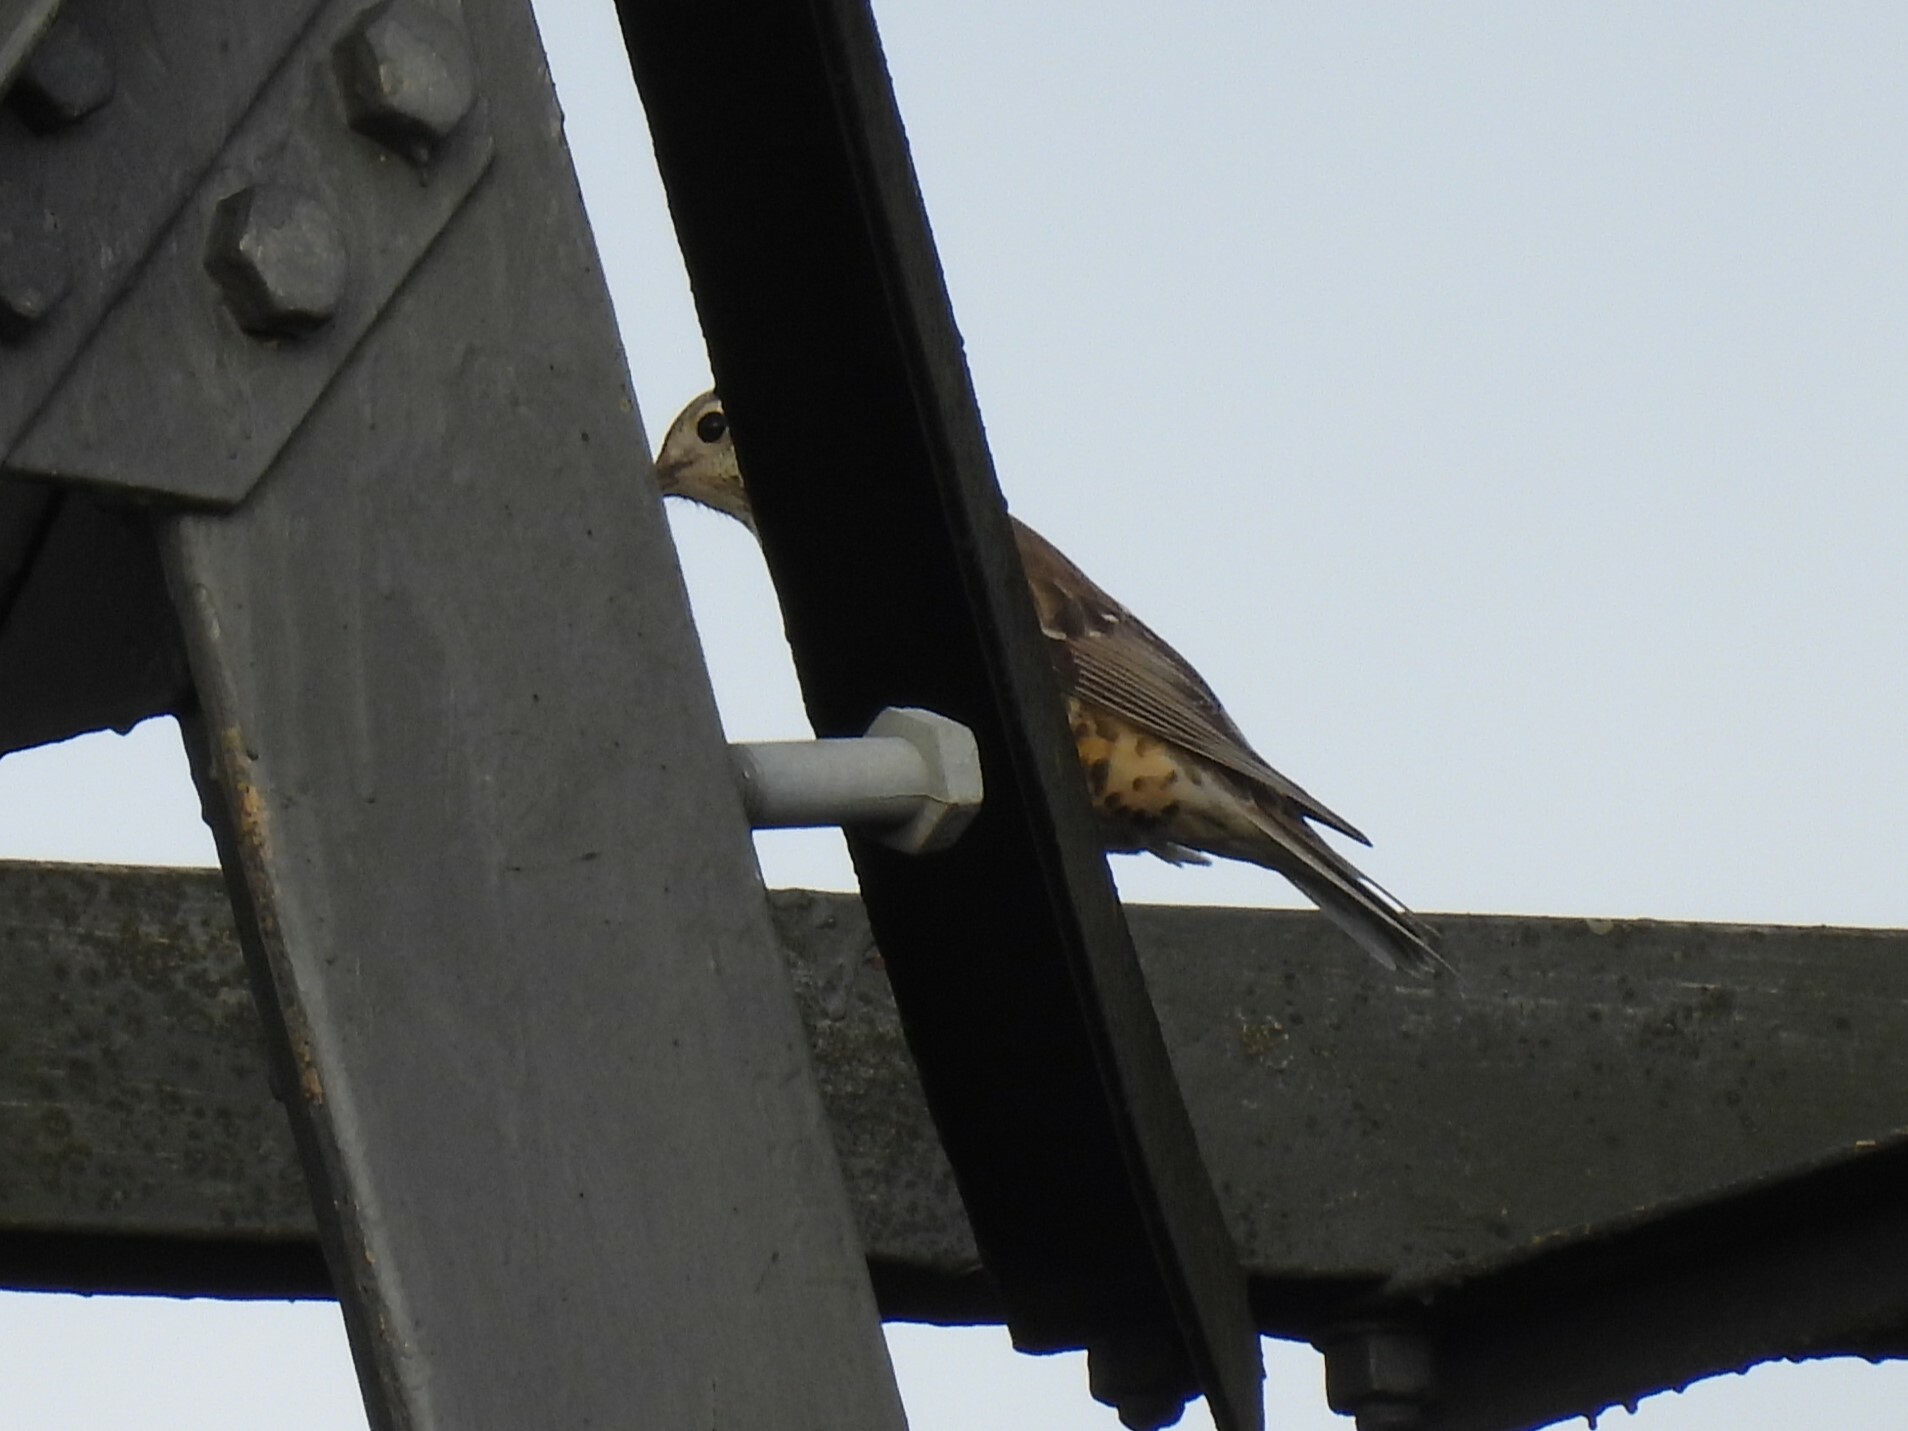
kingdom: Animalia
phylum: Chordata
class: Aves
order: Passeriformes
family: Turdidae
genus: Turdus
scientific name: Turdus viscivorus
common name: Mistle thrush
